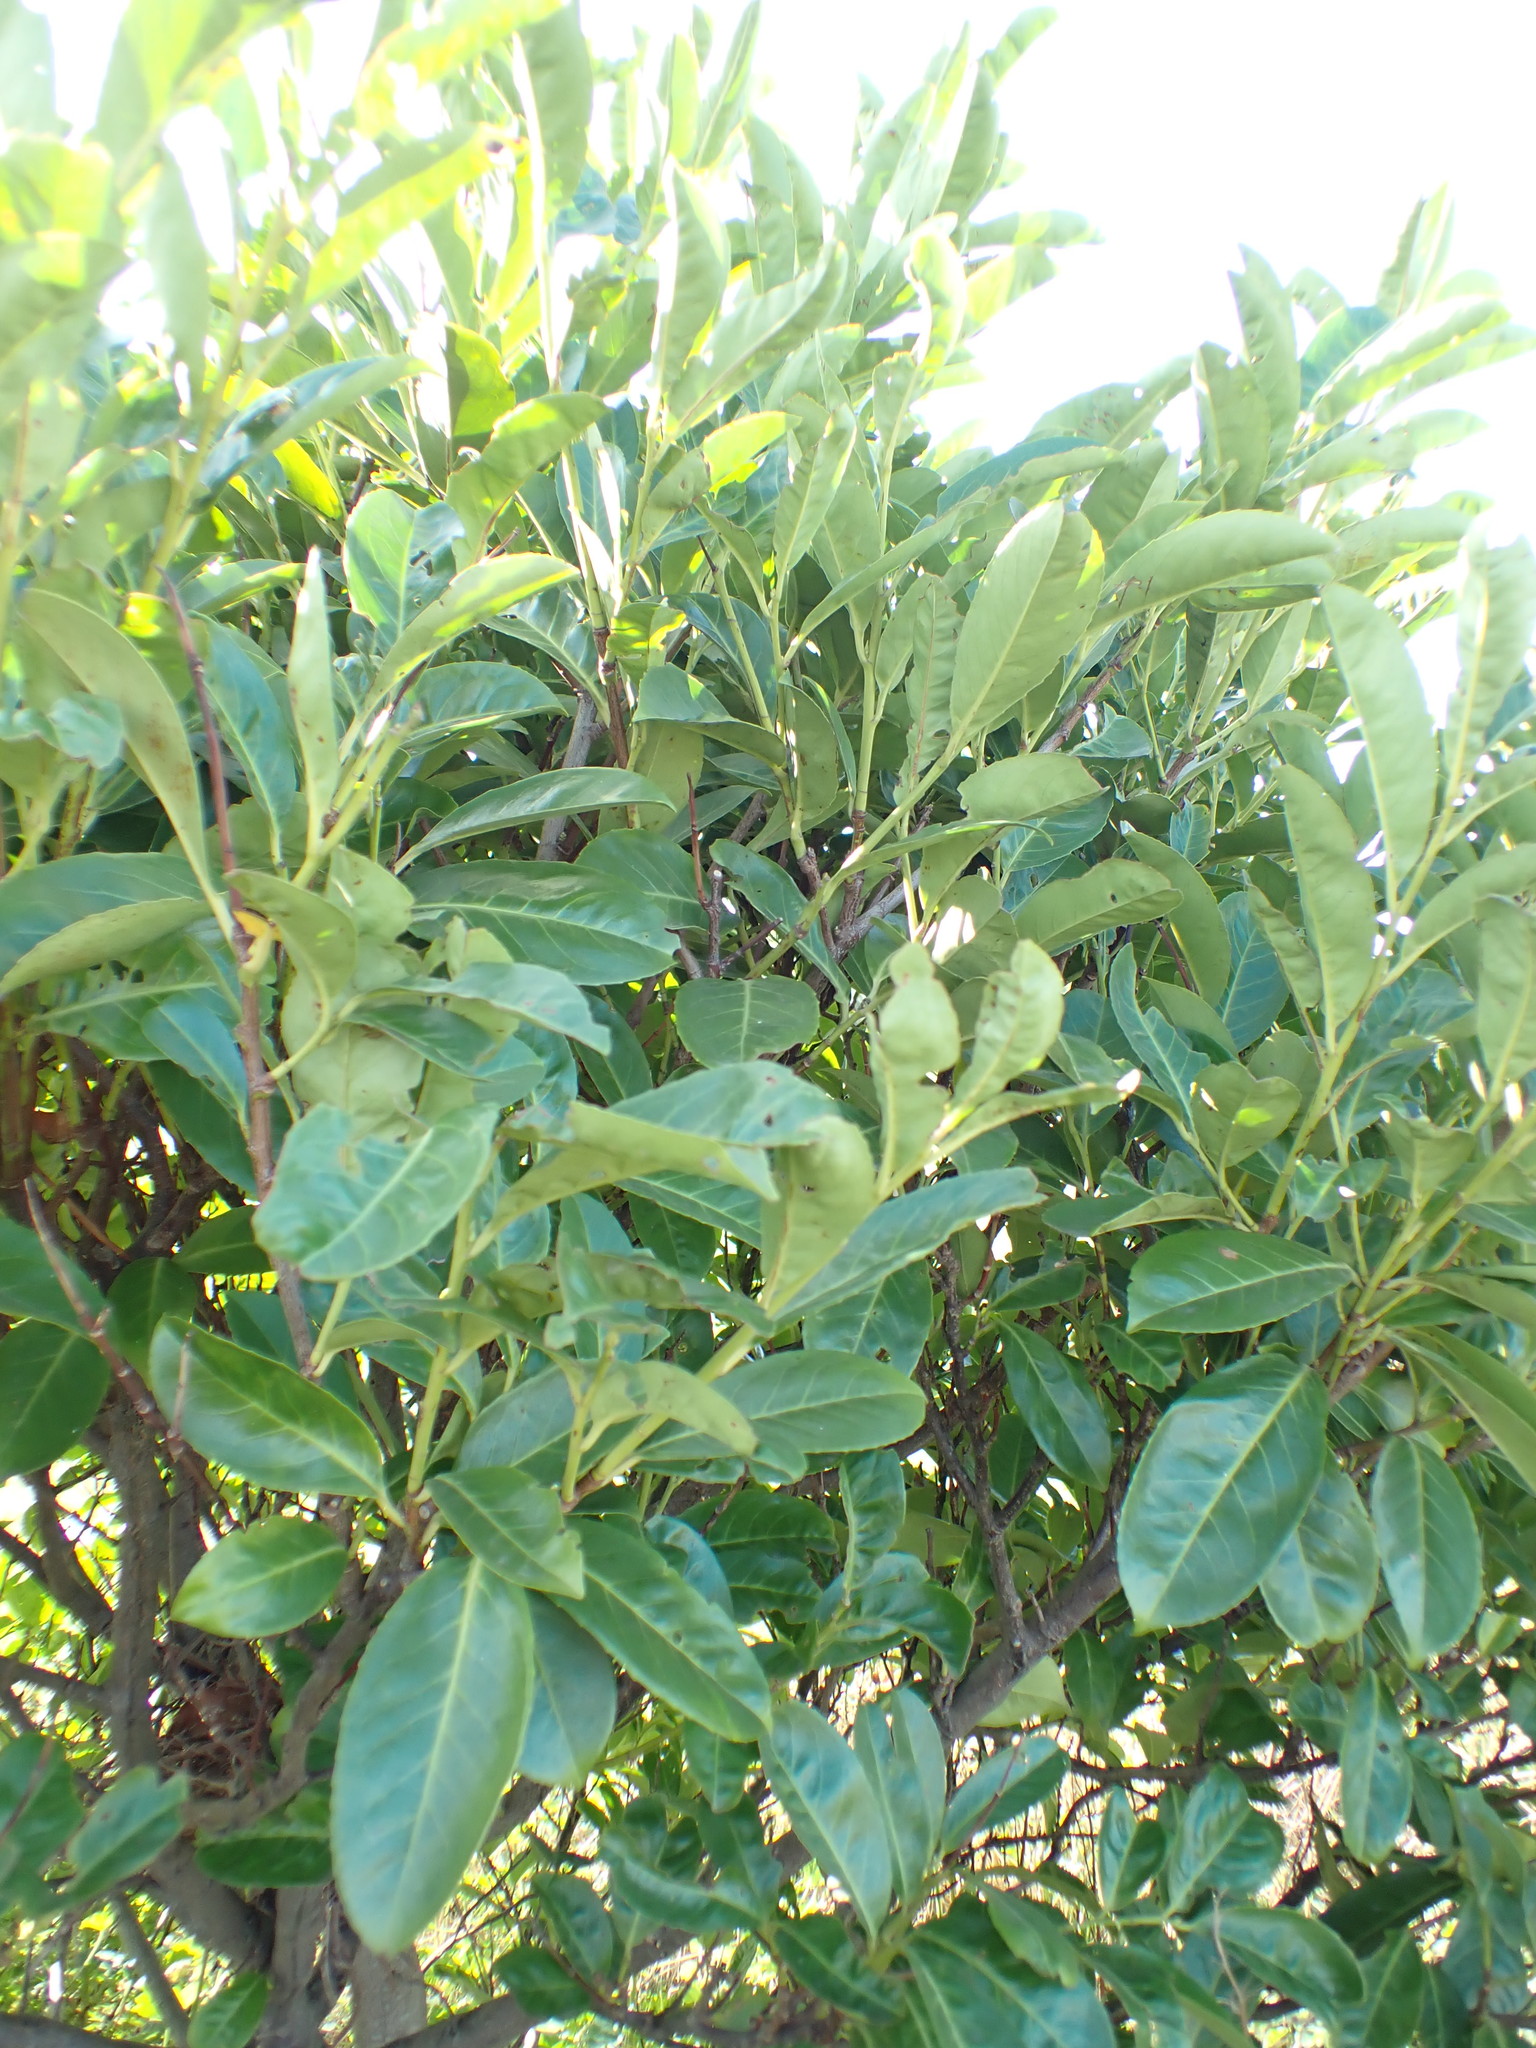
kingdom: Plantae
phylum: Tracheophyta
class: Magnoliopsida
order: Rosales
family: Rosaceae
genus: Prunus
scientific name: Prunus laurocerasus
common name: Cherry laurel
